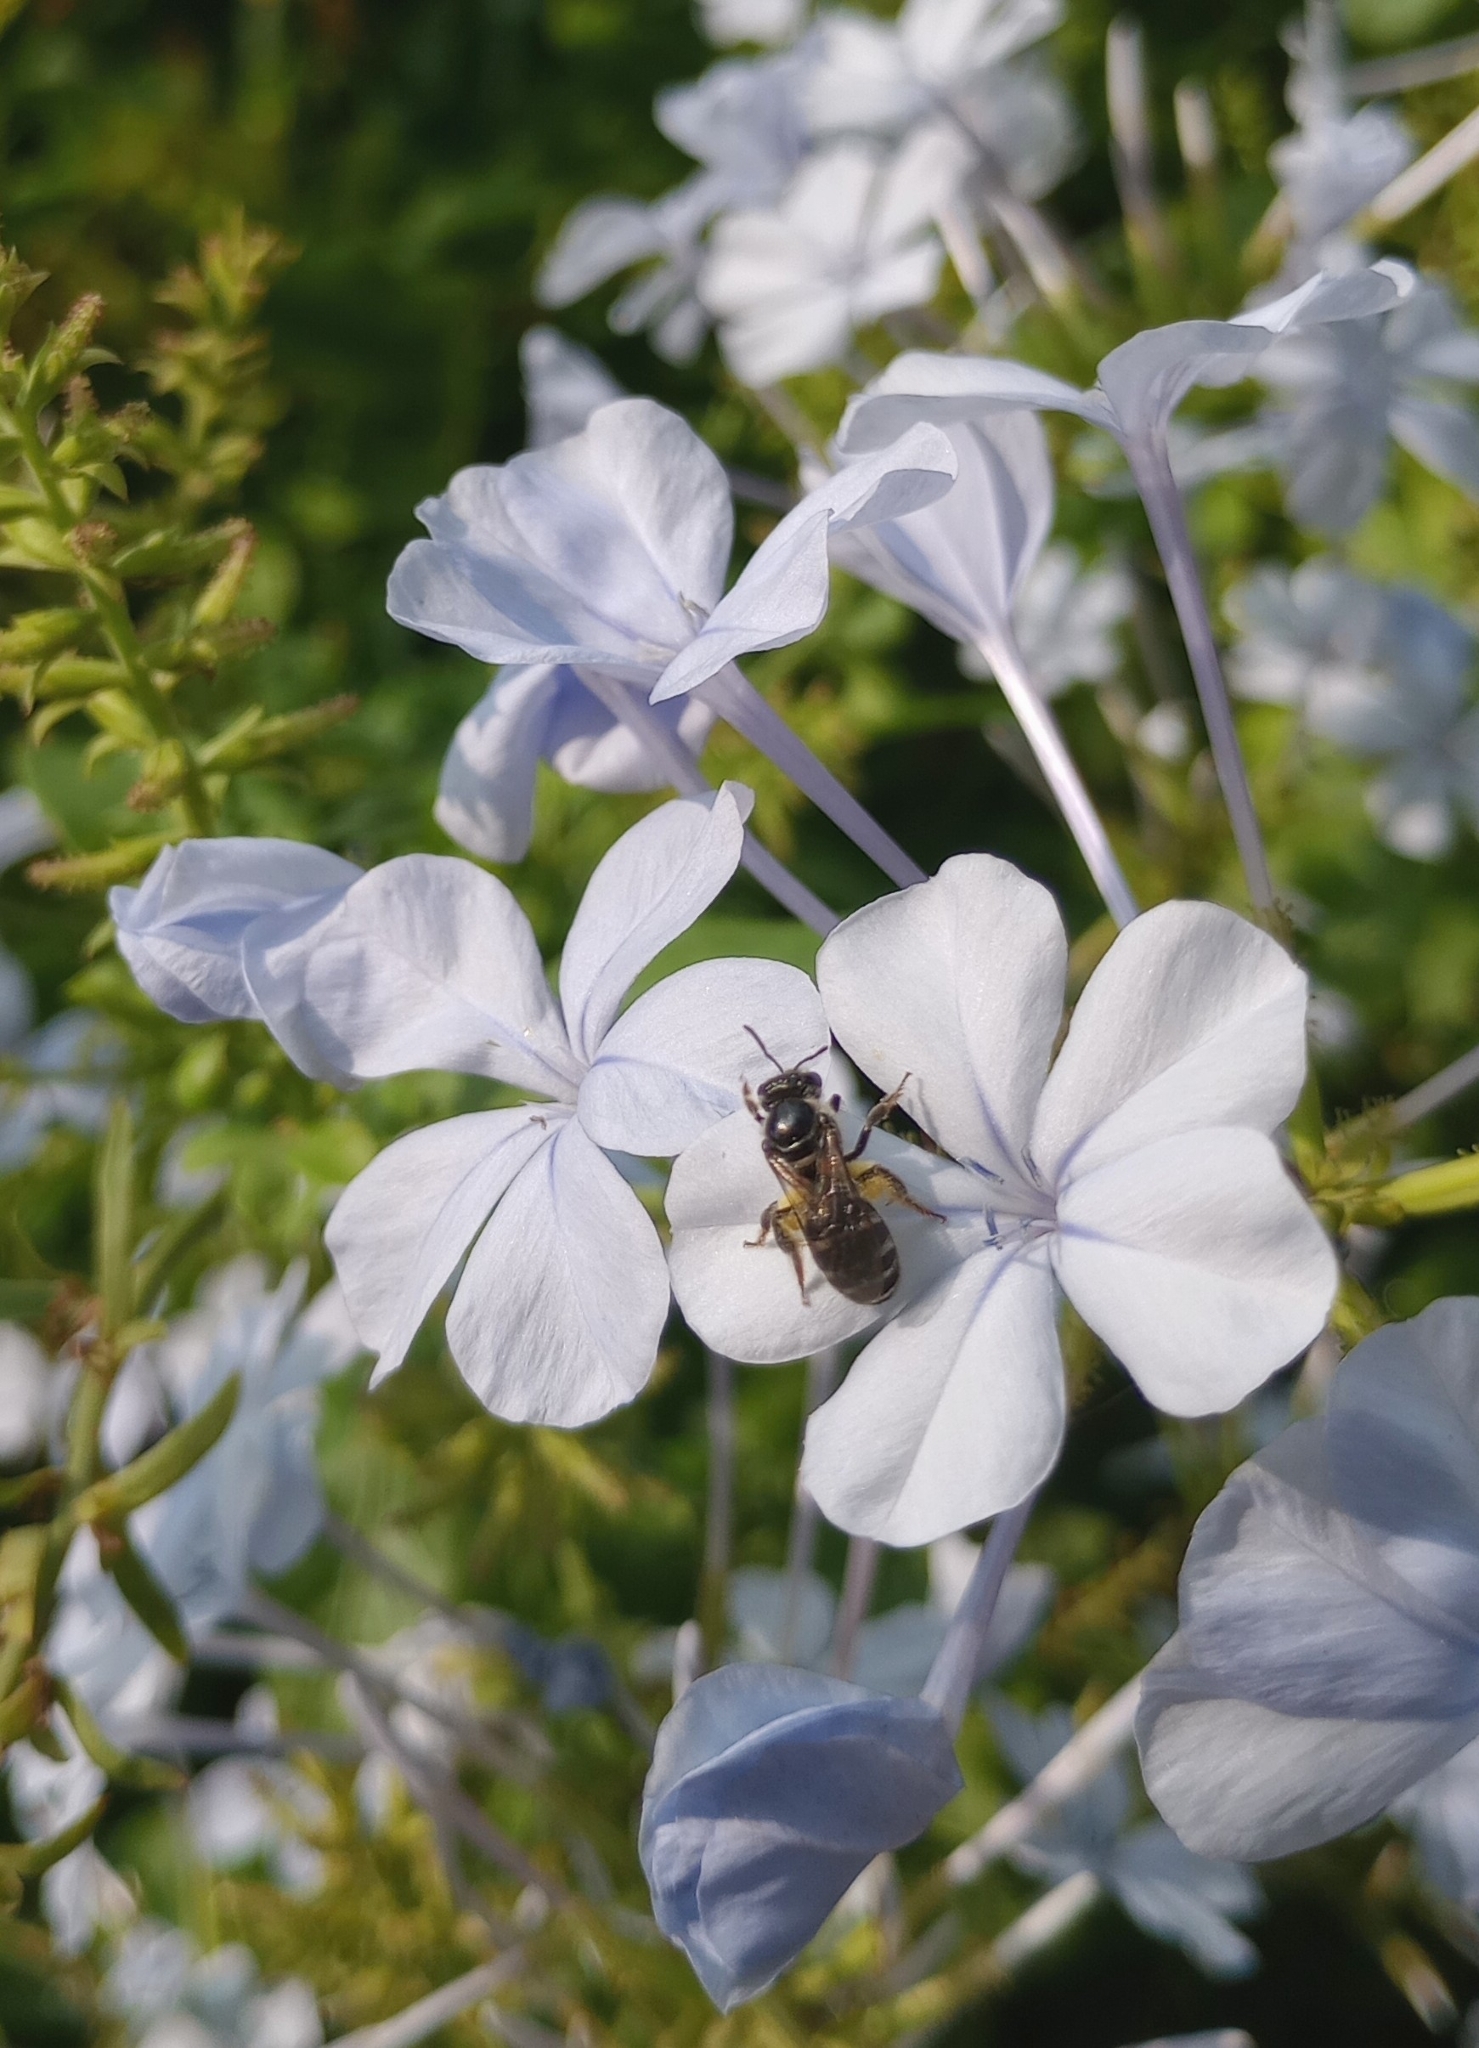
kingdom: Animalia
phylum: Arthropoda
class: Insecta
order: Hymenoptera
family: Halictidae
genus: Lasioglossum
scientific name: Lasioglossum albescens
